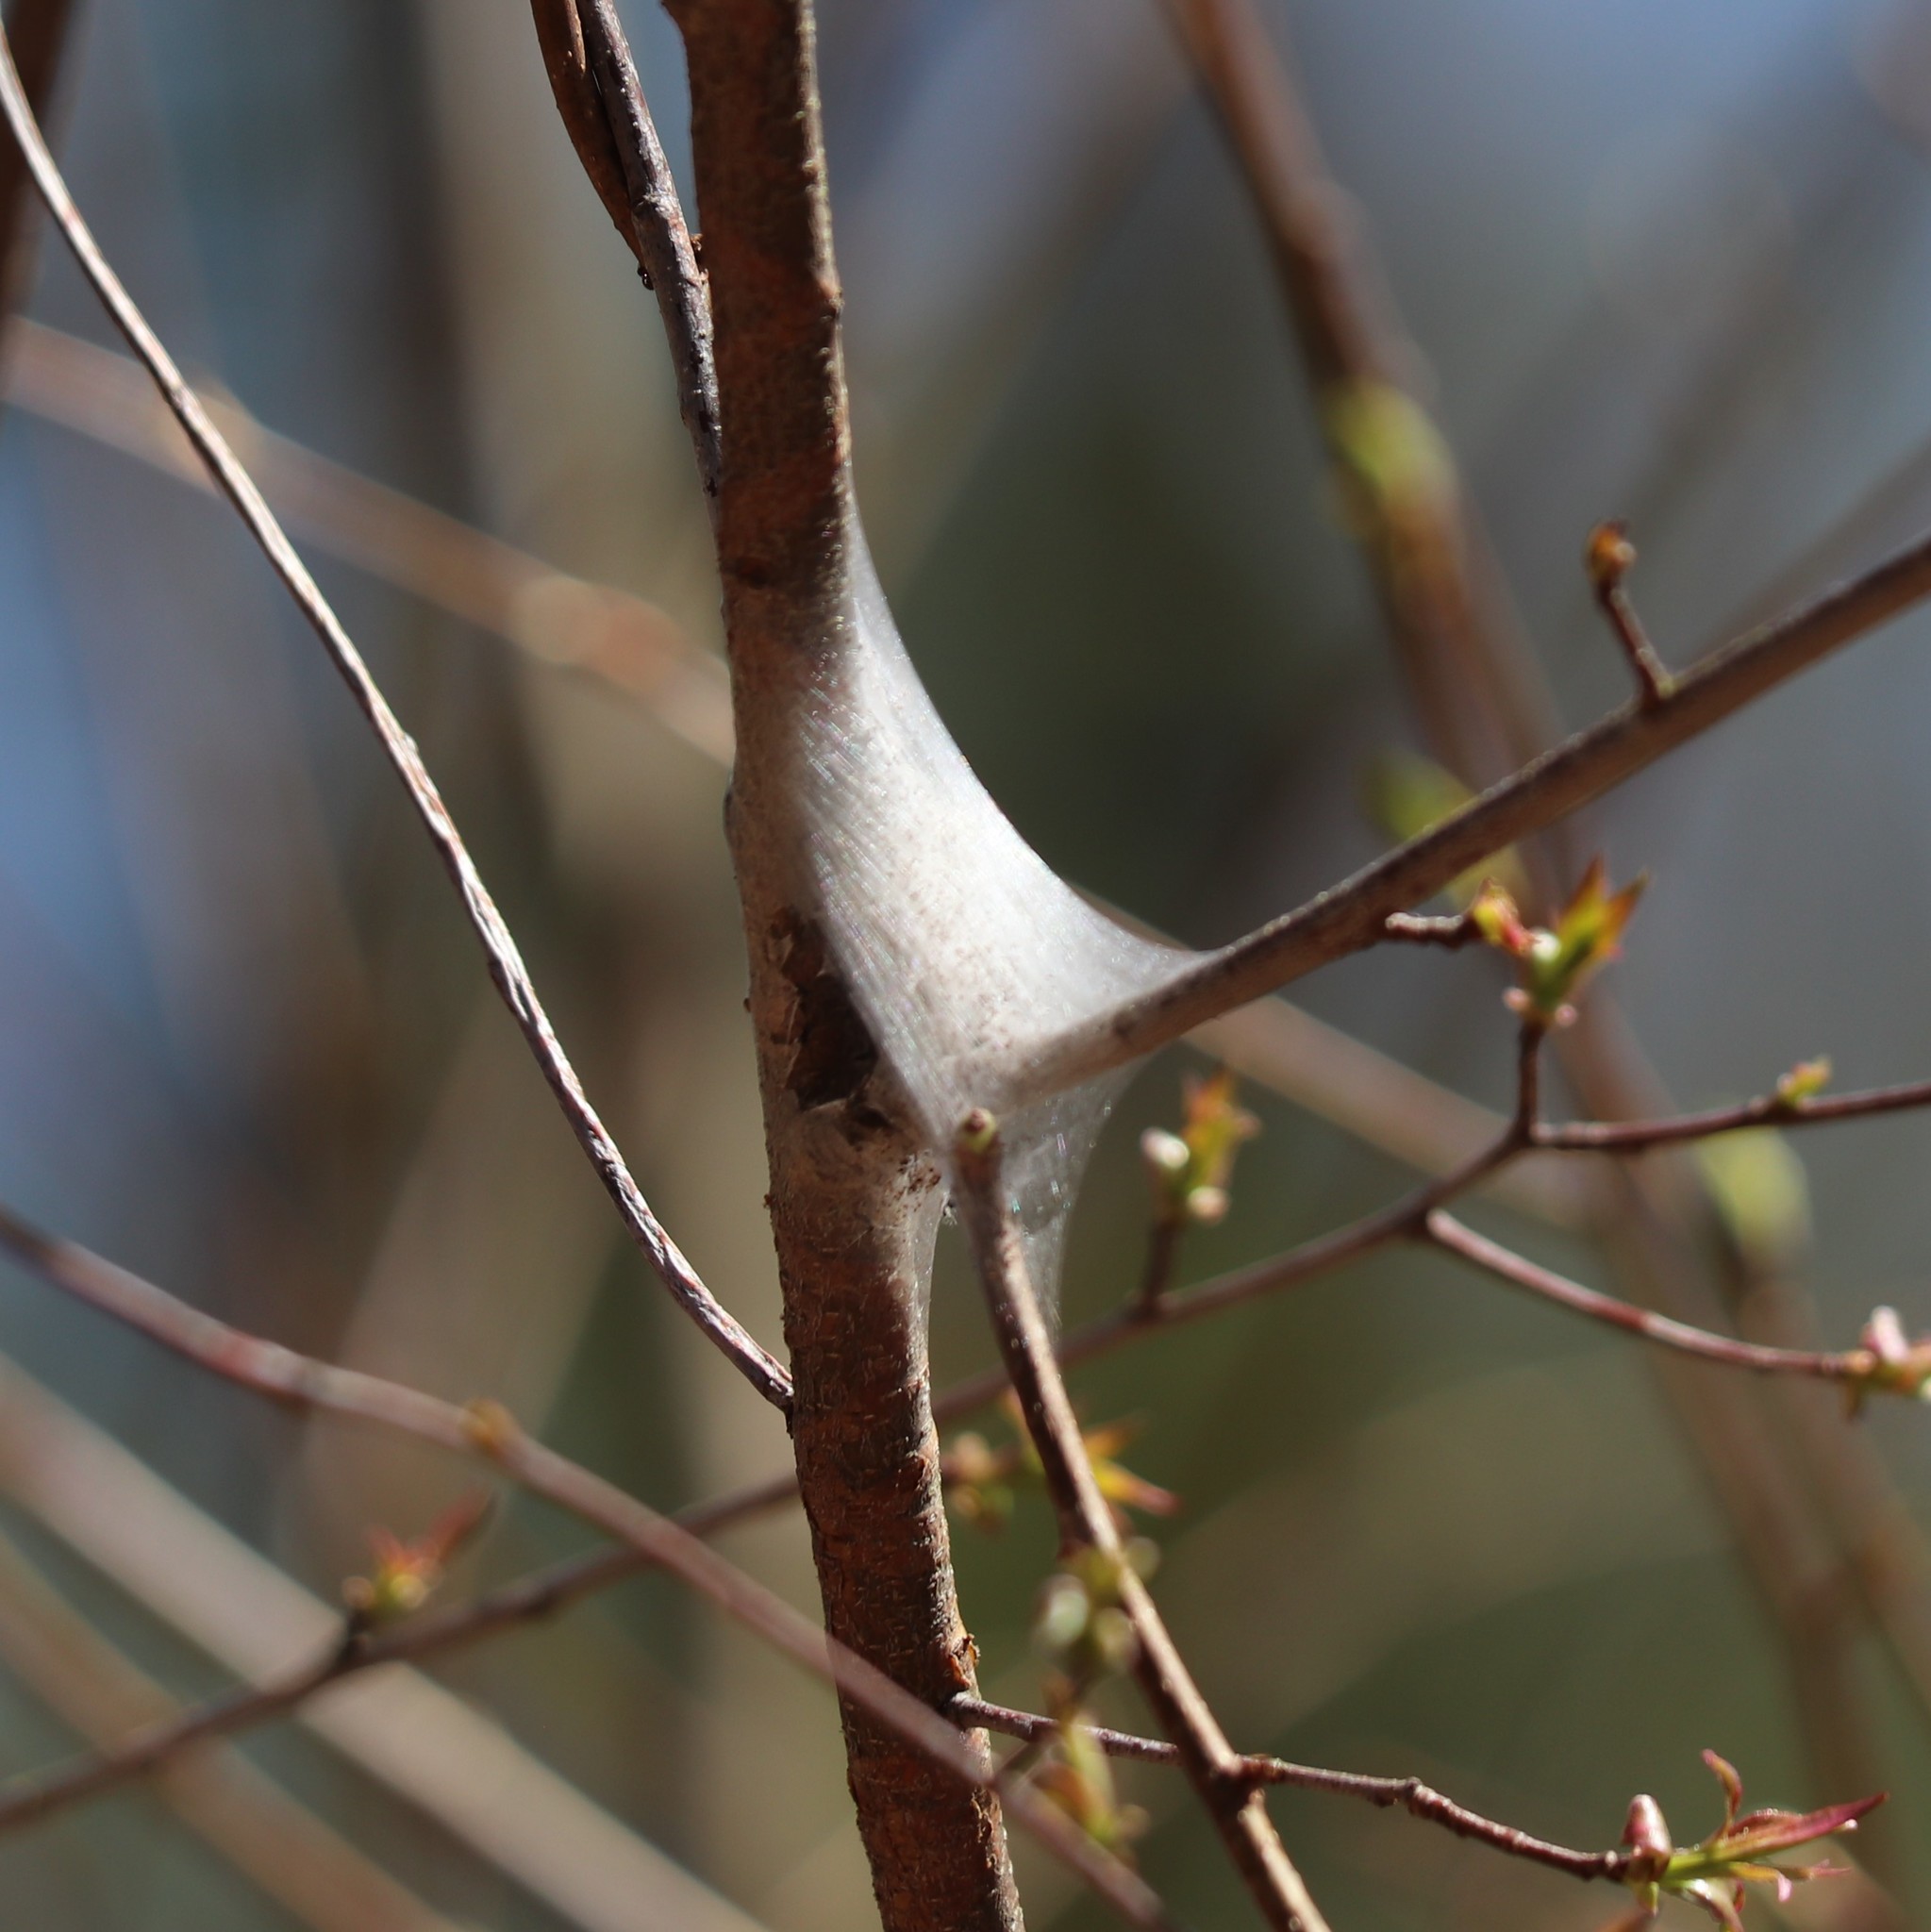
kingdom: Animalia
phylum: Arthropoda
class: Insecta
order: Lepidoptera
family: Lasiocampidae
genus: Malacosoma
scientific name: Malacosoma americana
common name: Eastern tent caterpillar moth
